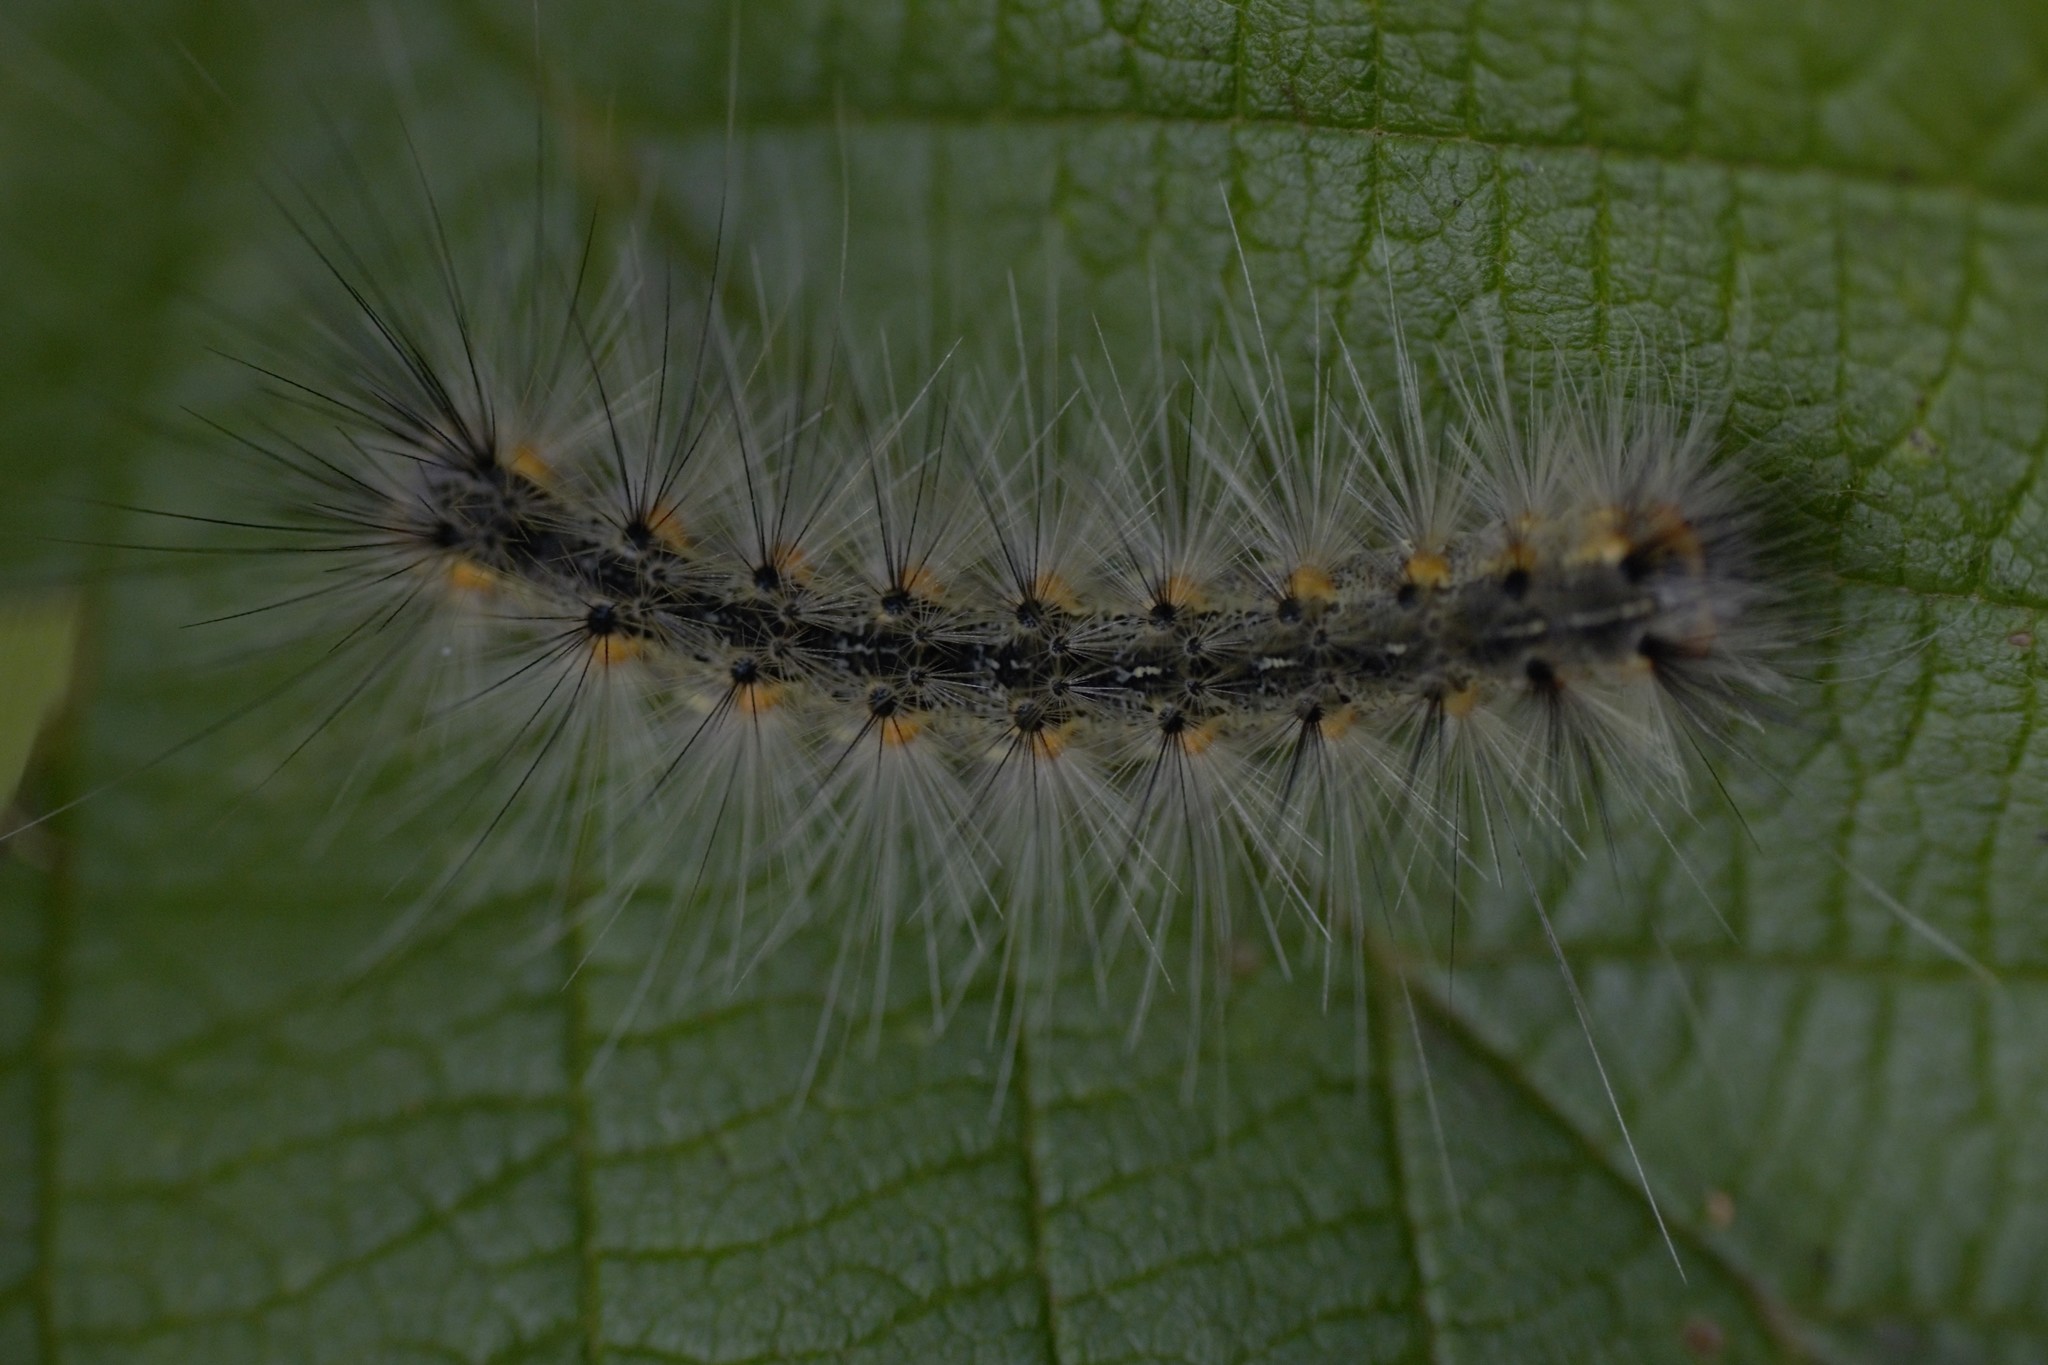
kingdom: Animalia
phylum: Arthropoda
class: Insecta
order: Lepidoptera
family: Erebidae
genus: Hyphantria
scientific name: Hyphantria cunea
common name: American white moth
